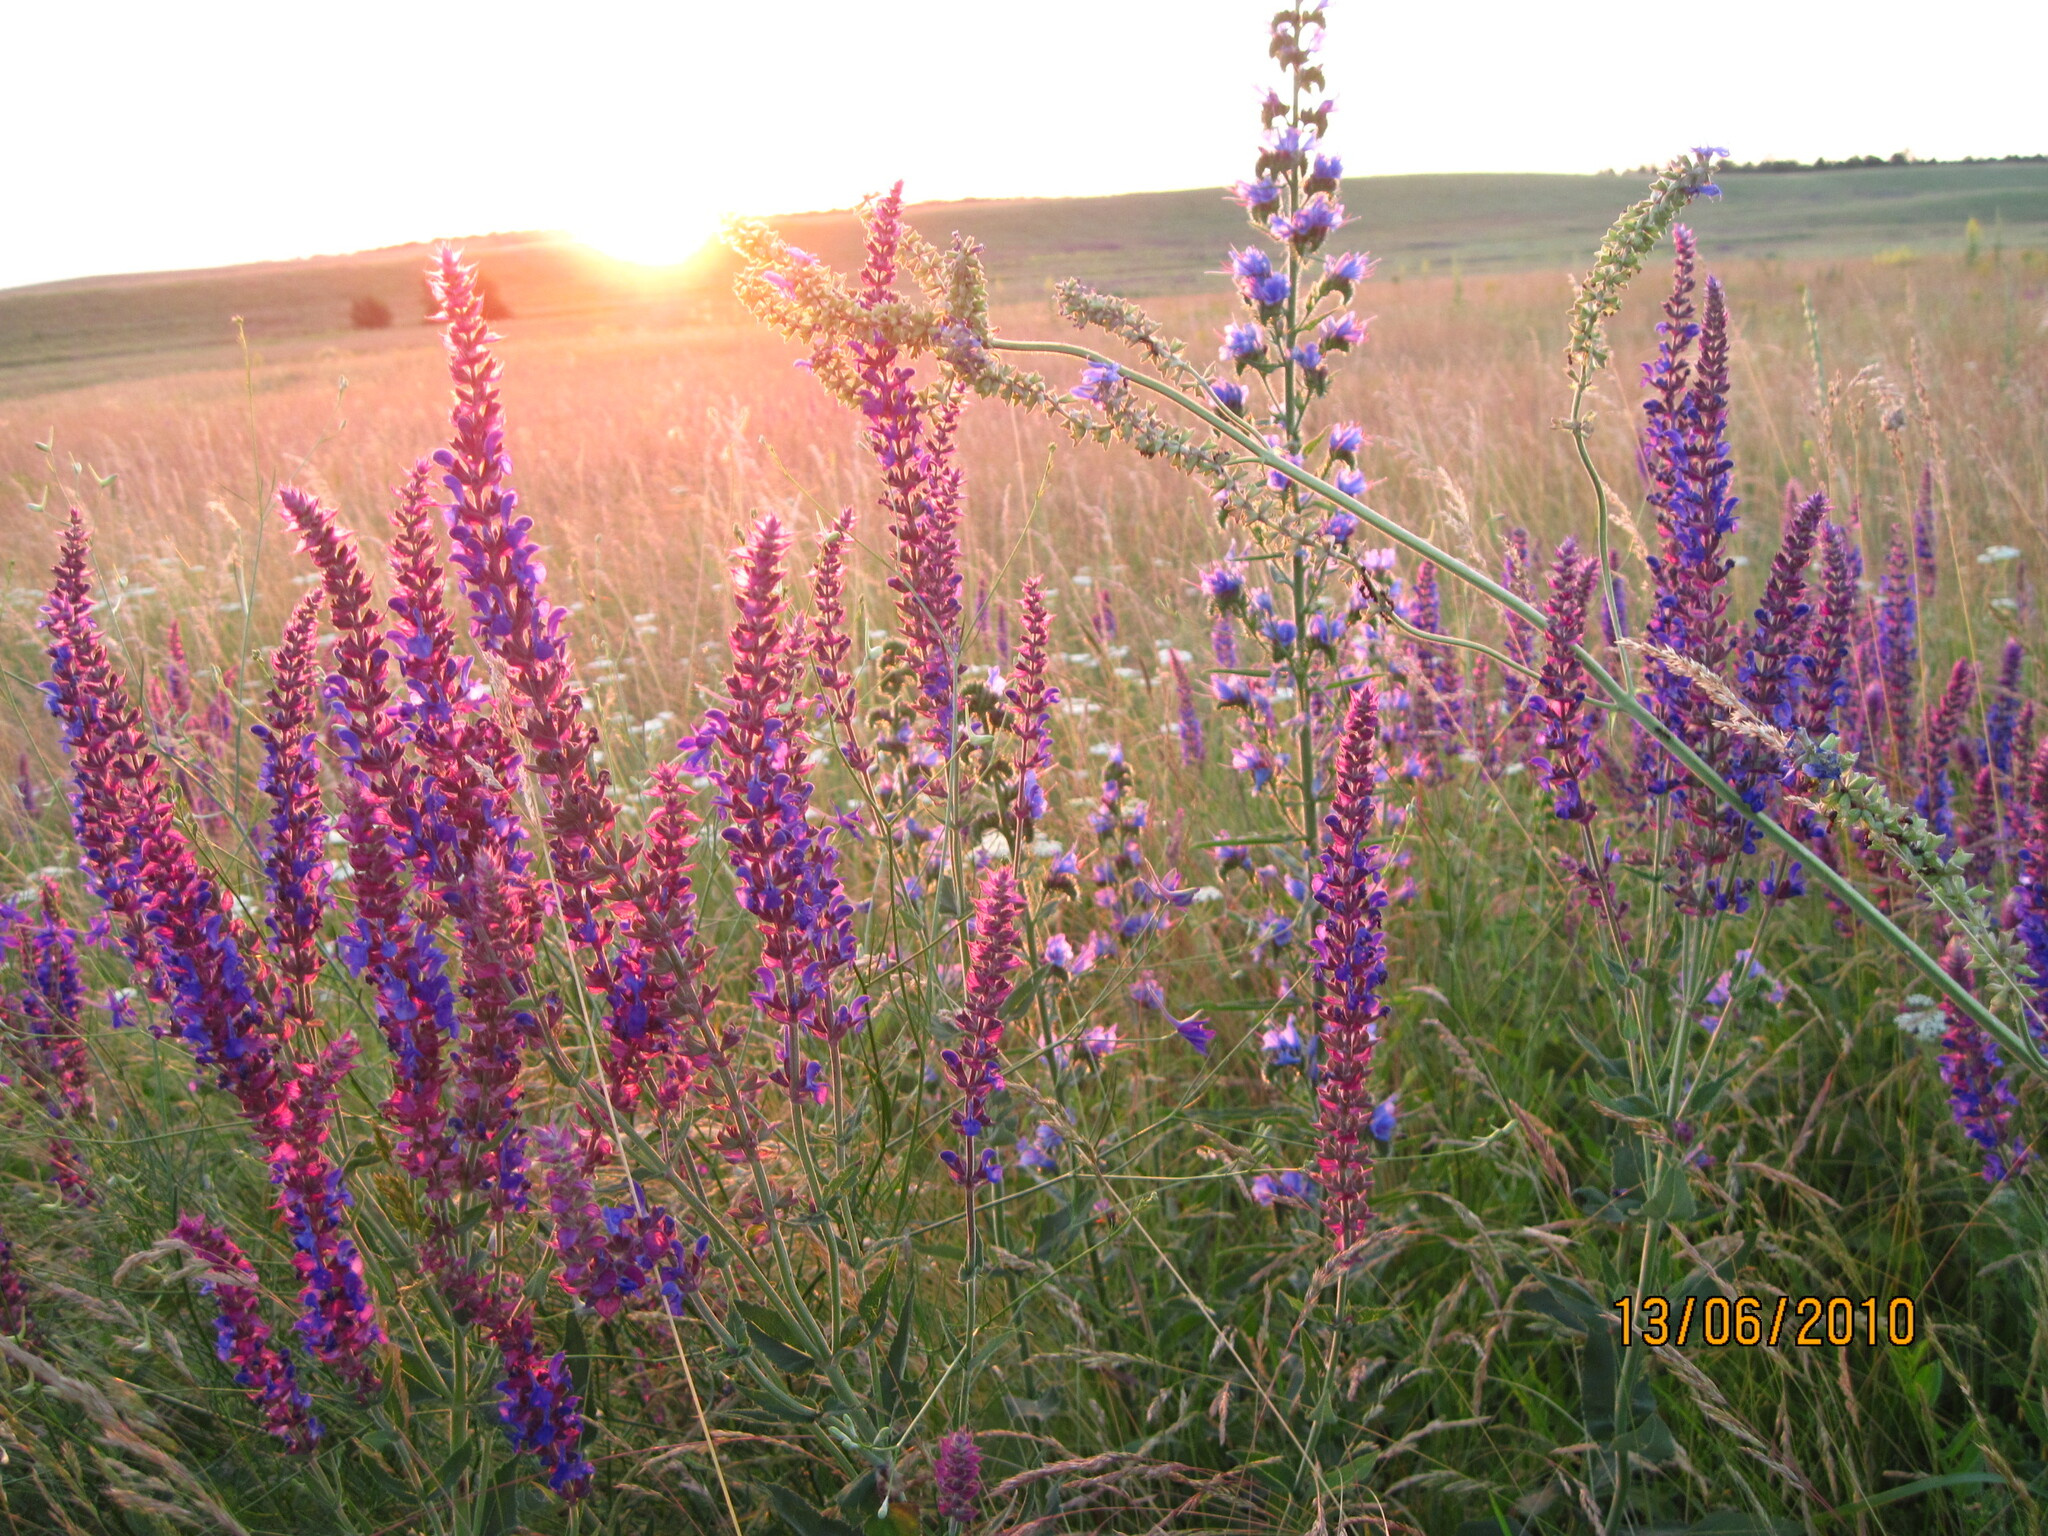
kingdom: Plantae
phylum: Tracheophyta
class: Magnoliopsida
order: Lamiales
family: Lamiaceae
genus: Salvia
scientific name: Salvia nemorosa
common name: Balkan clary
